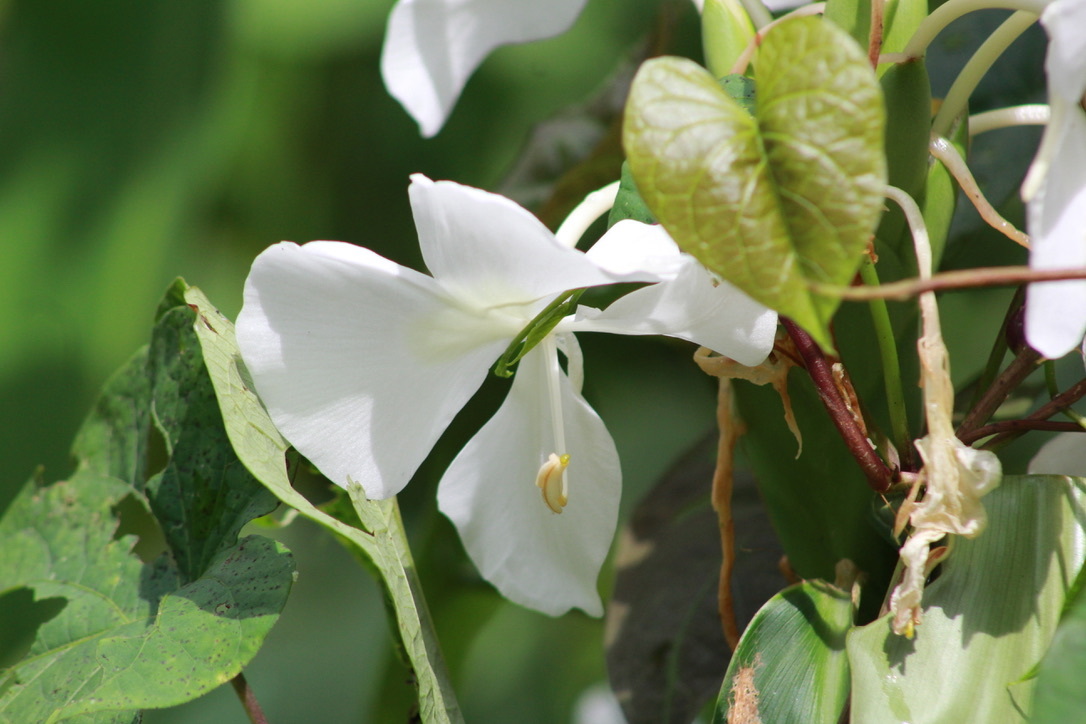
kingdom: Plantae
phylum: Tracheophyta
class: Liliopsida
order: Zingiberales
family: Zingiberaceae
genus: Hedychium
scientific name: Hedychium coronarium
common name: White garland-lily
